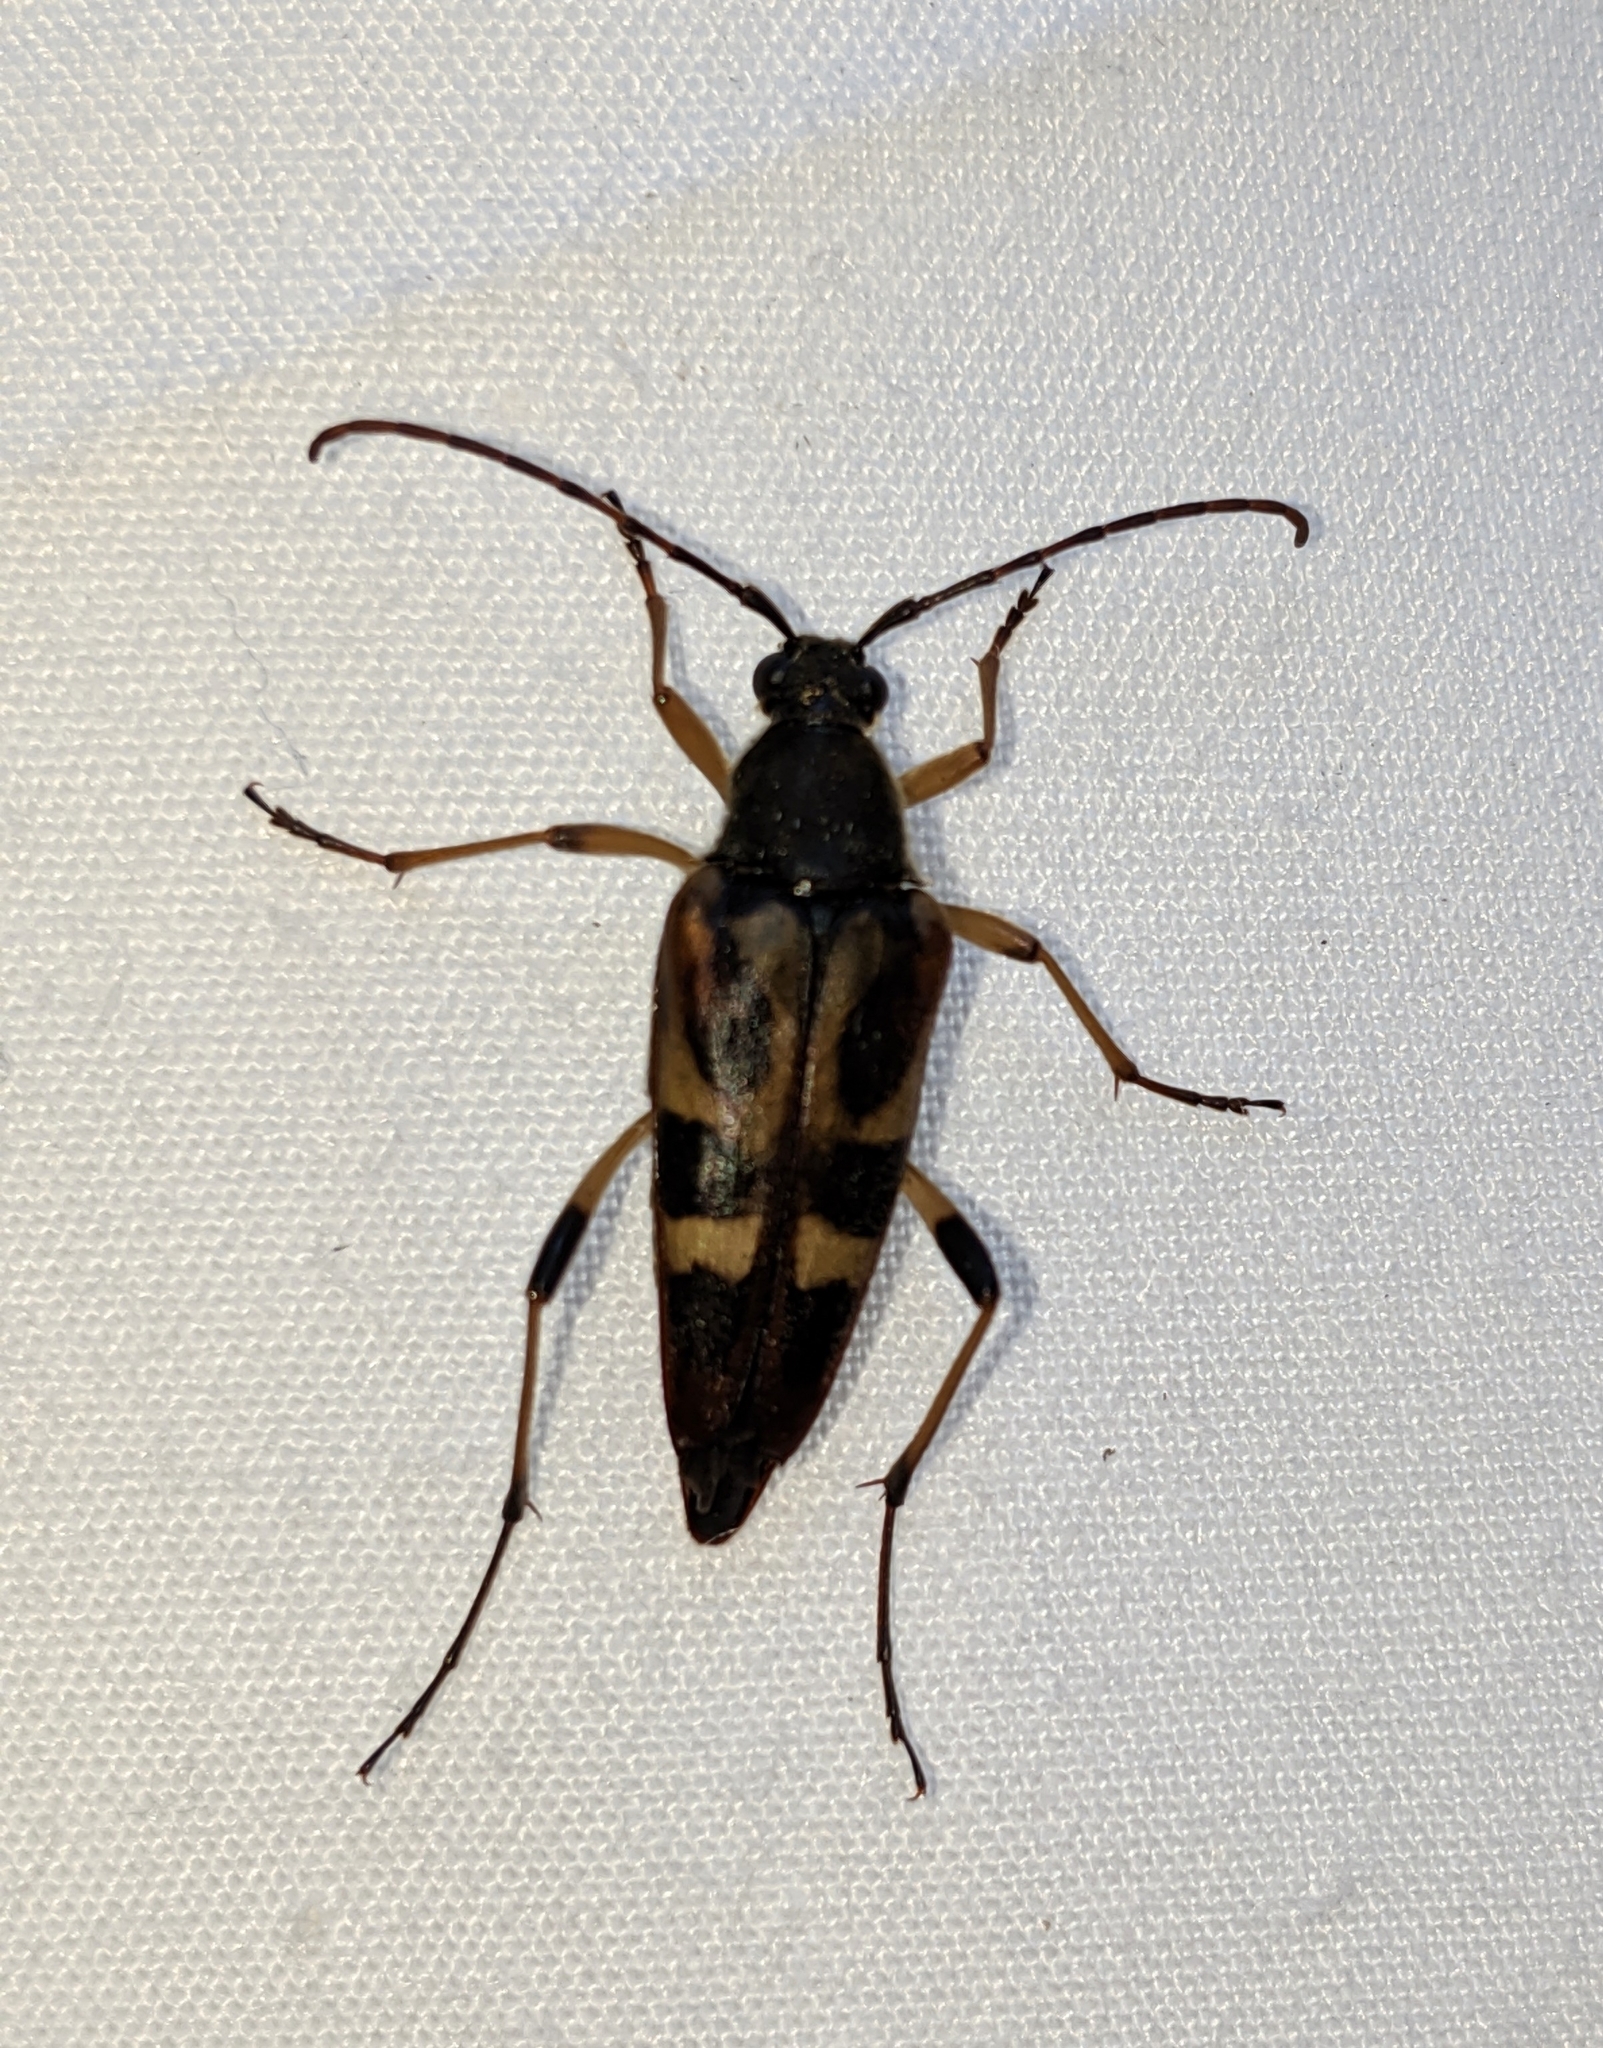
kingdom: Animalia
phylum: Arthropoda
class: Insecta
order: Coleoptera
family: Cerambycidae
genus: Etorofus
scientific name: Etorofus obliteratus
